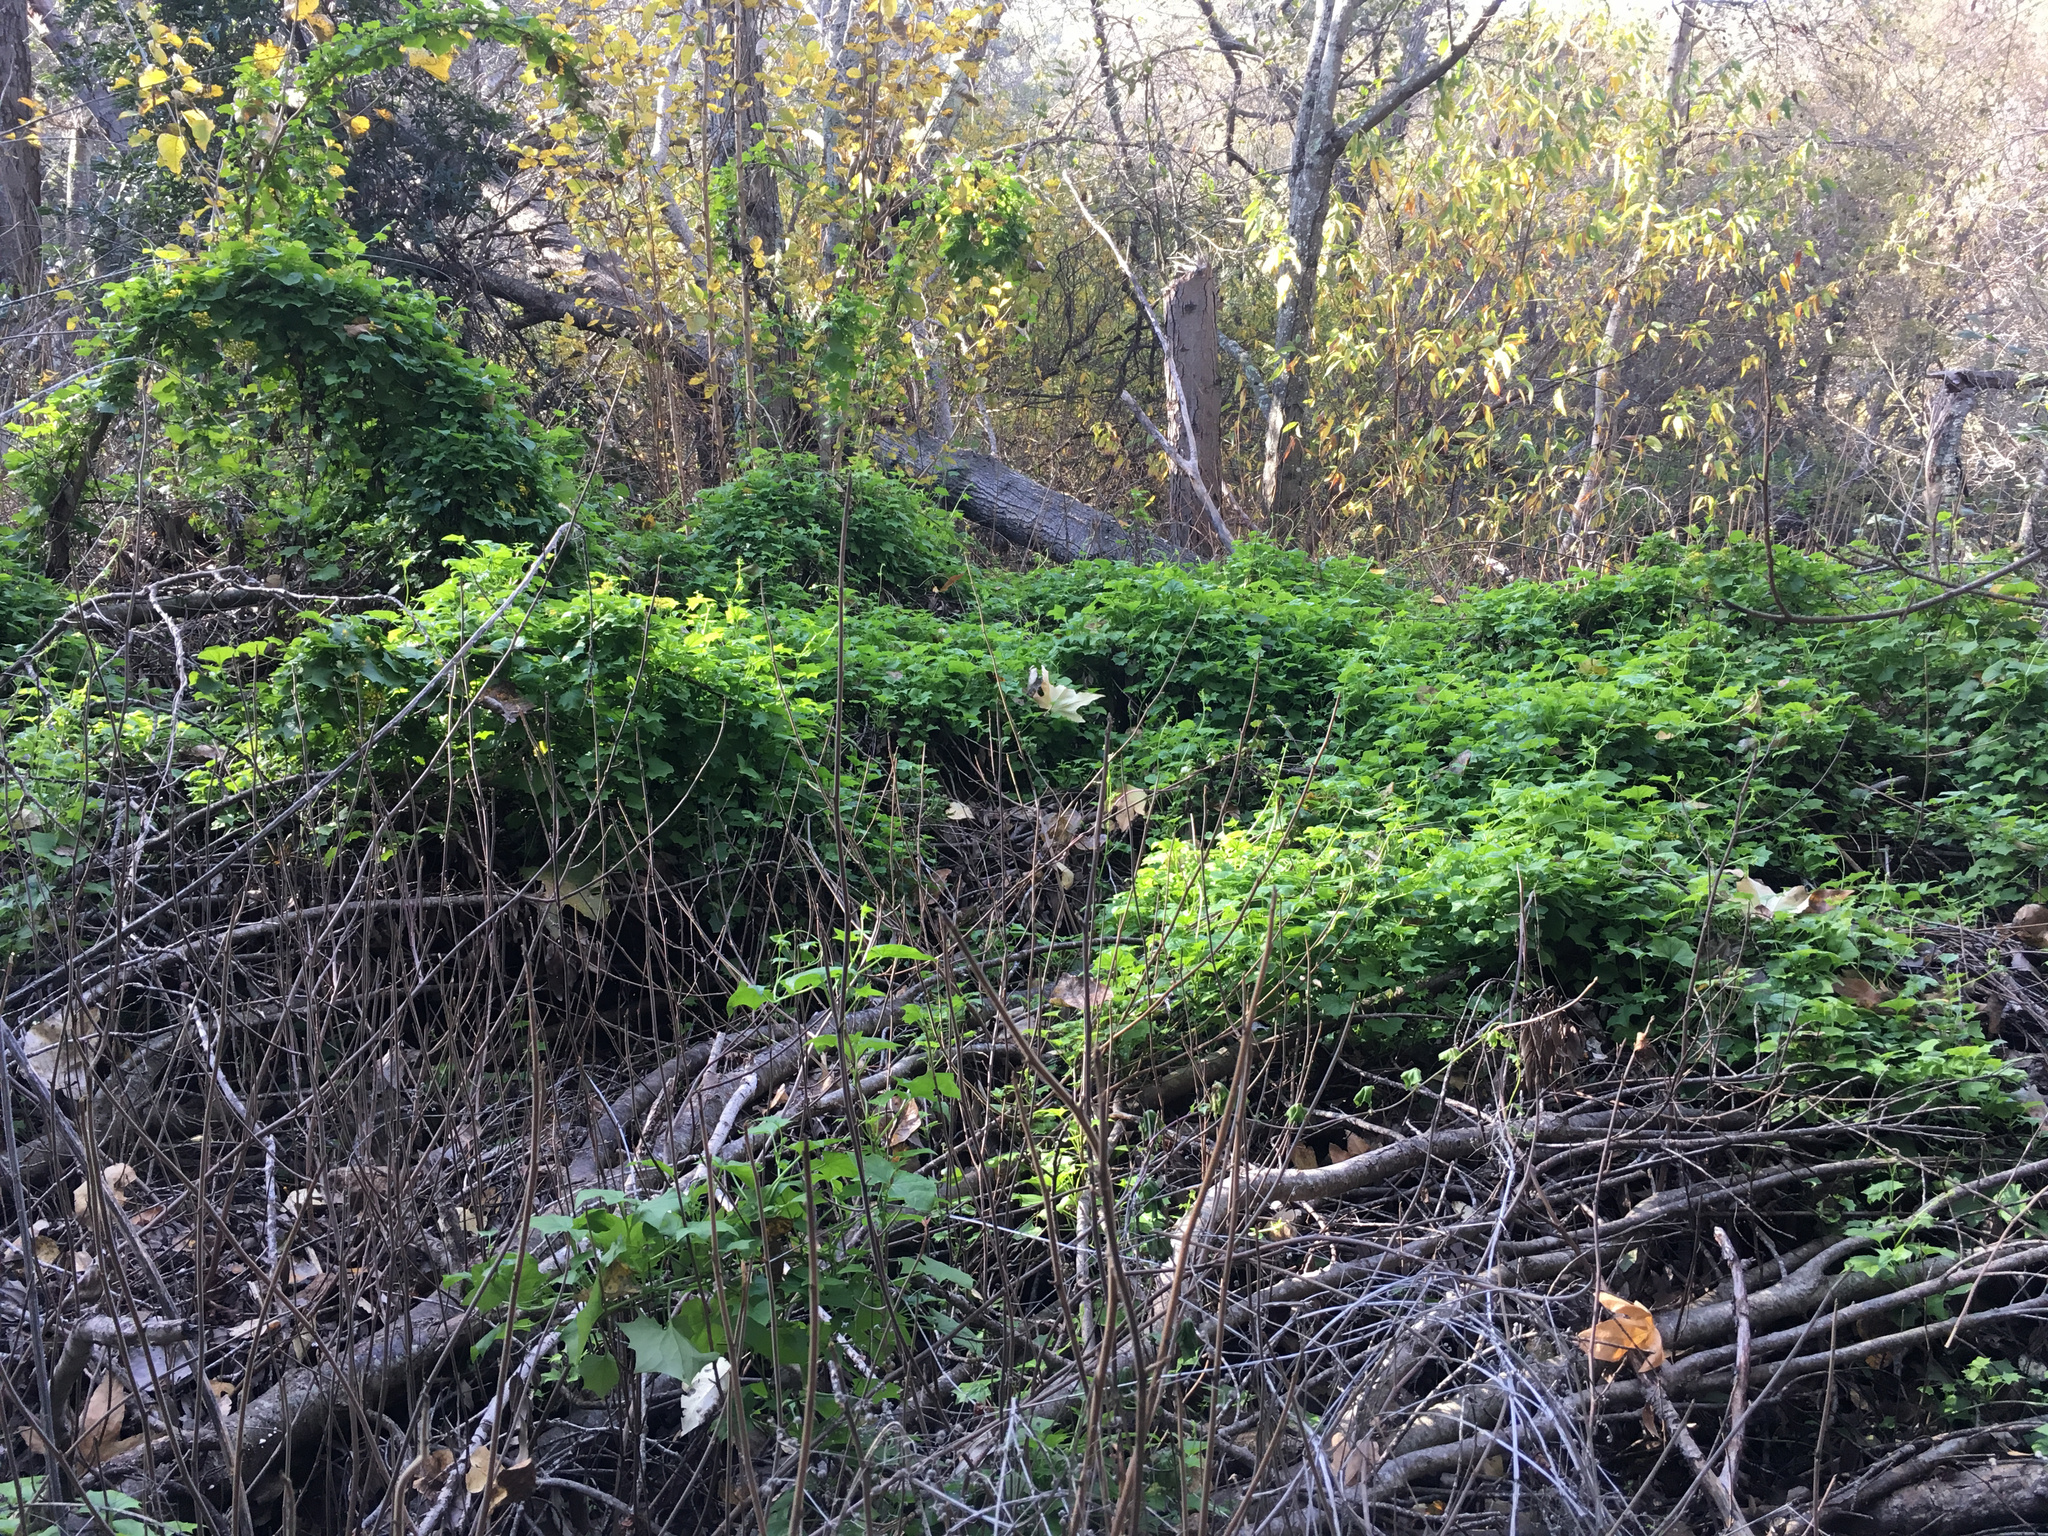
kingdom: Plantae
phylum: Tracheophyta
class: Magnoliopsida
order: Asterales
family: Asteraceae
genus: Delairea
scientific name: Delairea odorata
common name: Cape-ivy
